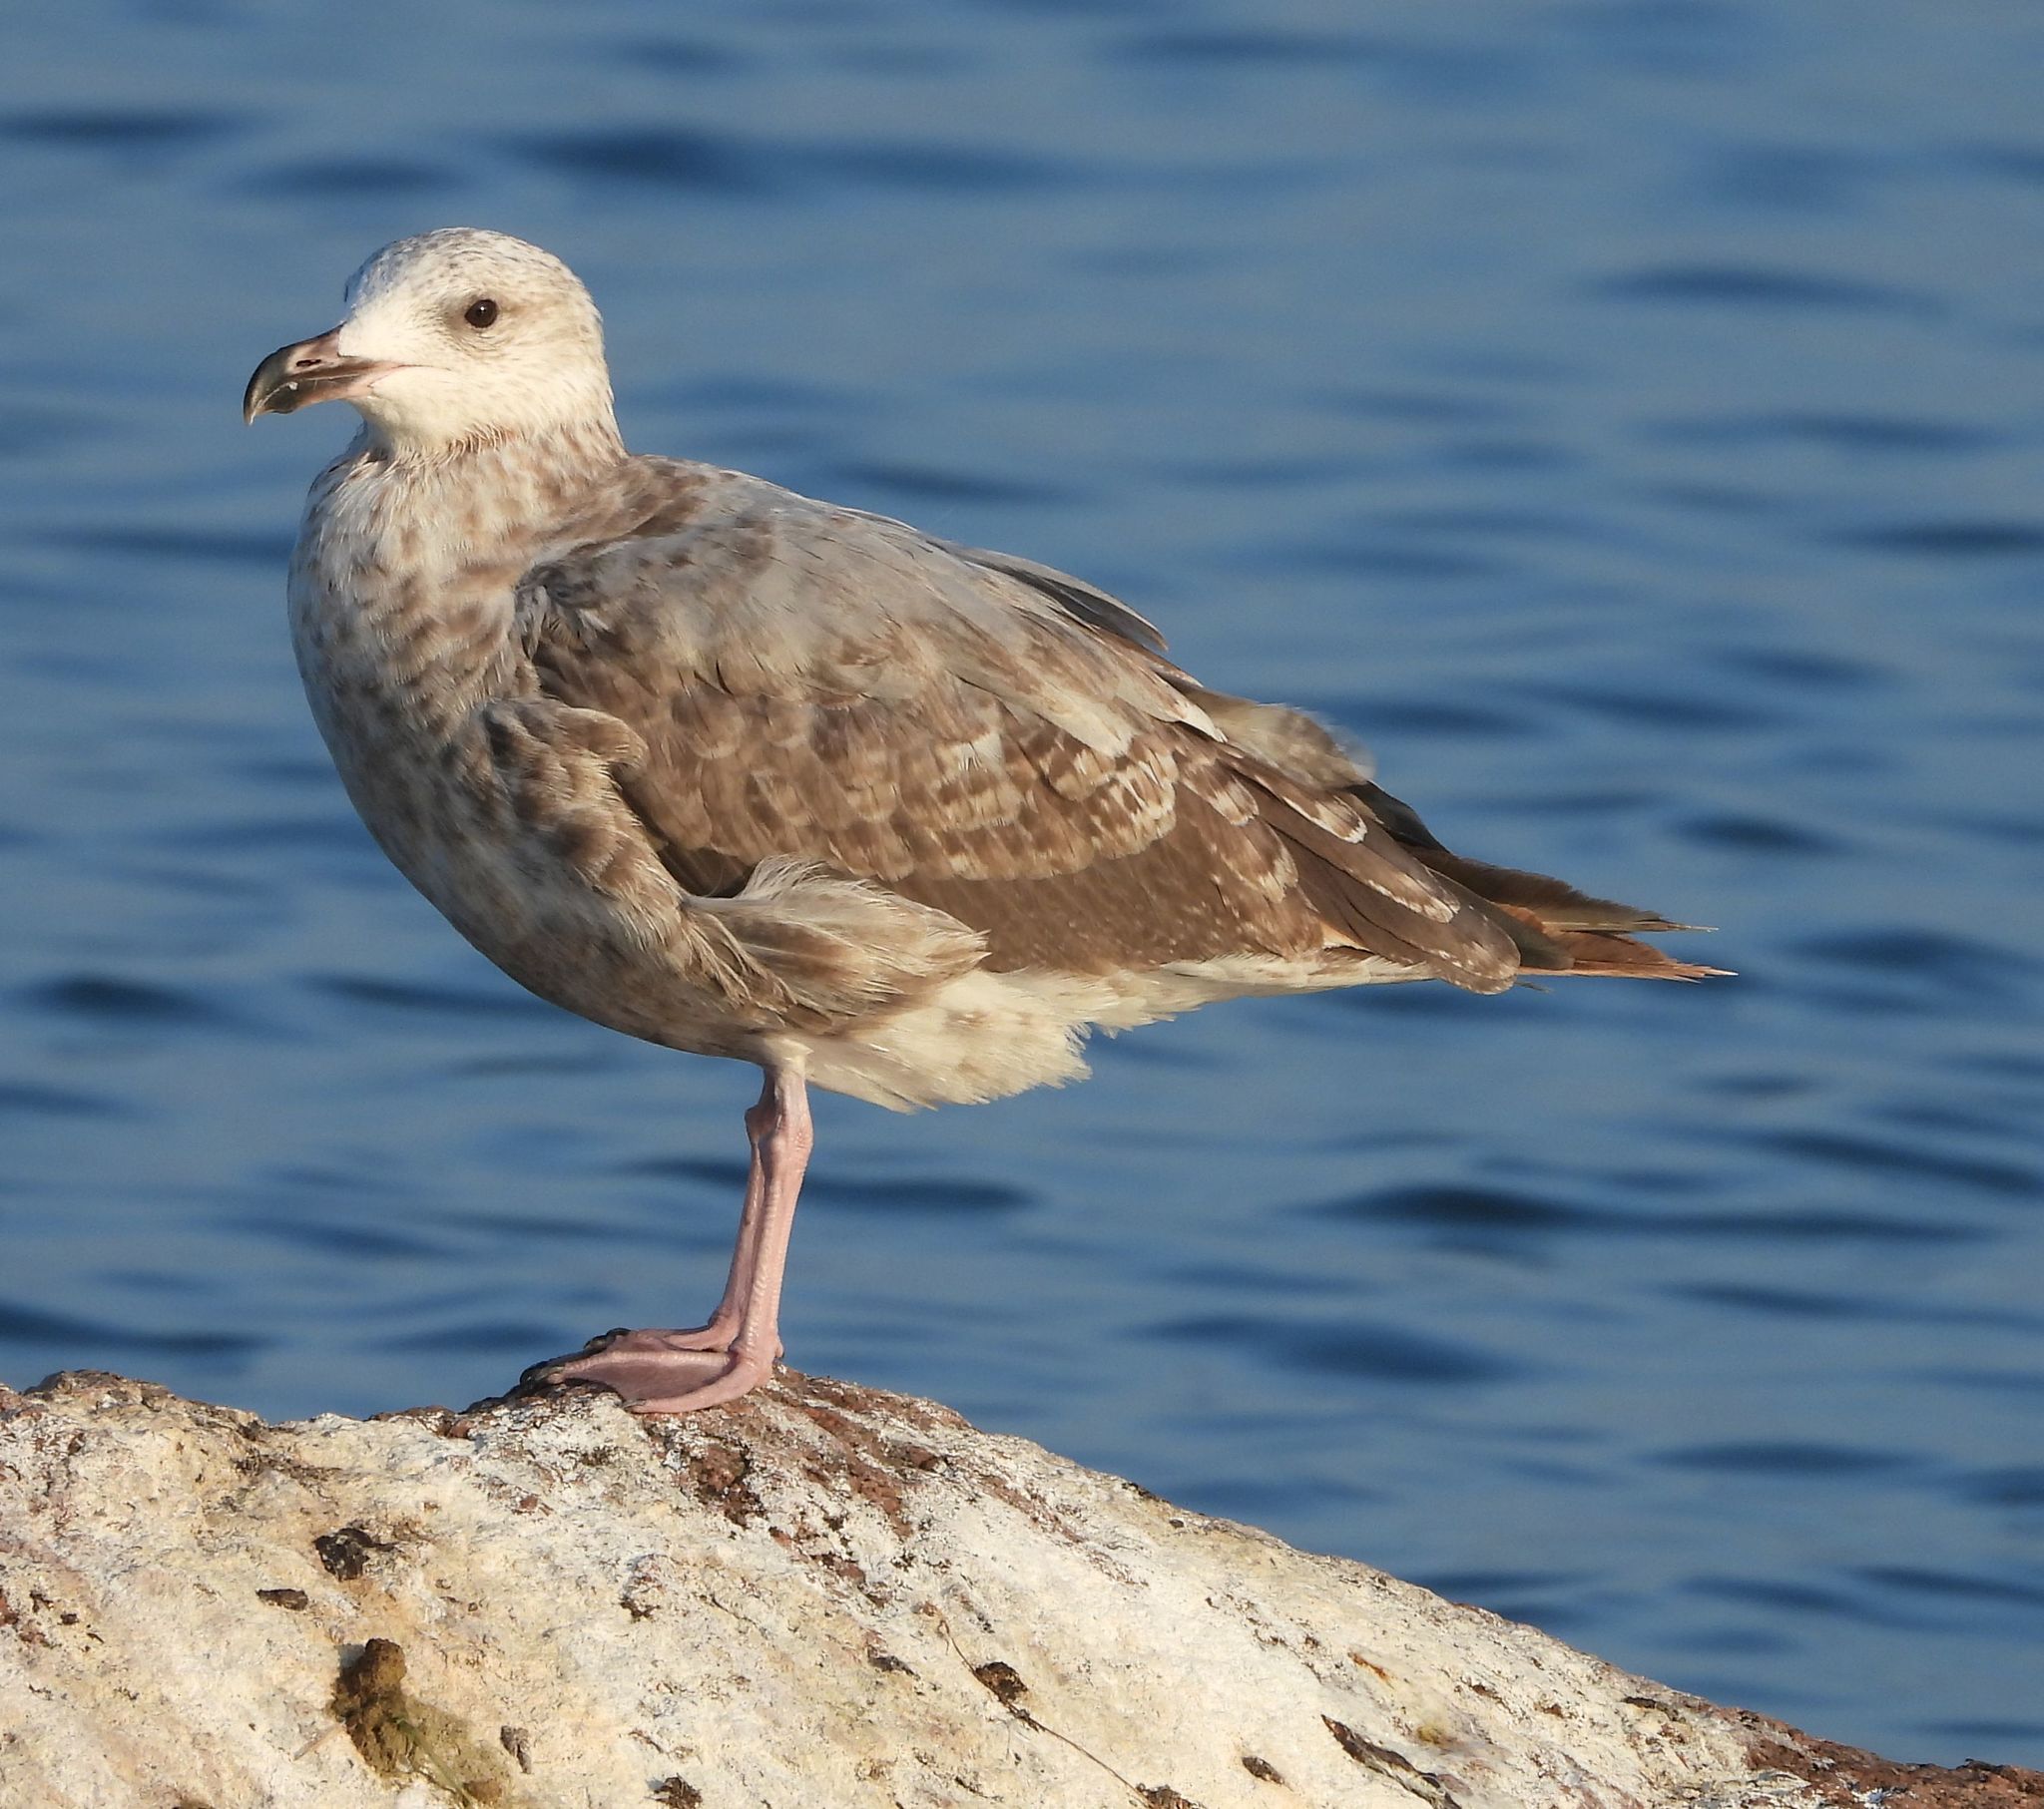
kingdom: Animalia
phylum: Chordata
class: Aves
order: Charadriiformes
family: Laridae
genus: Larus
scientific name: Larus argentatus
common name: Herring gull
